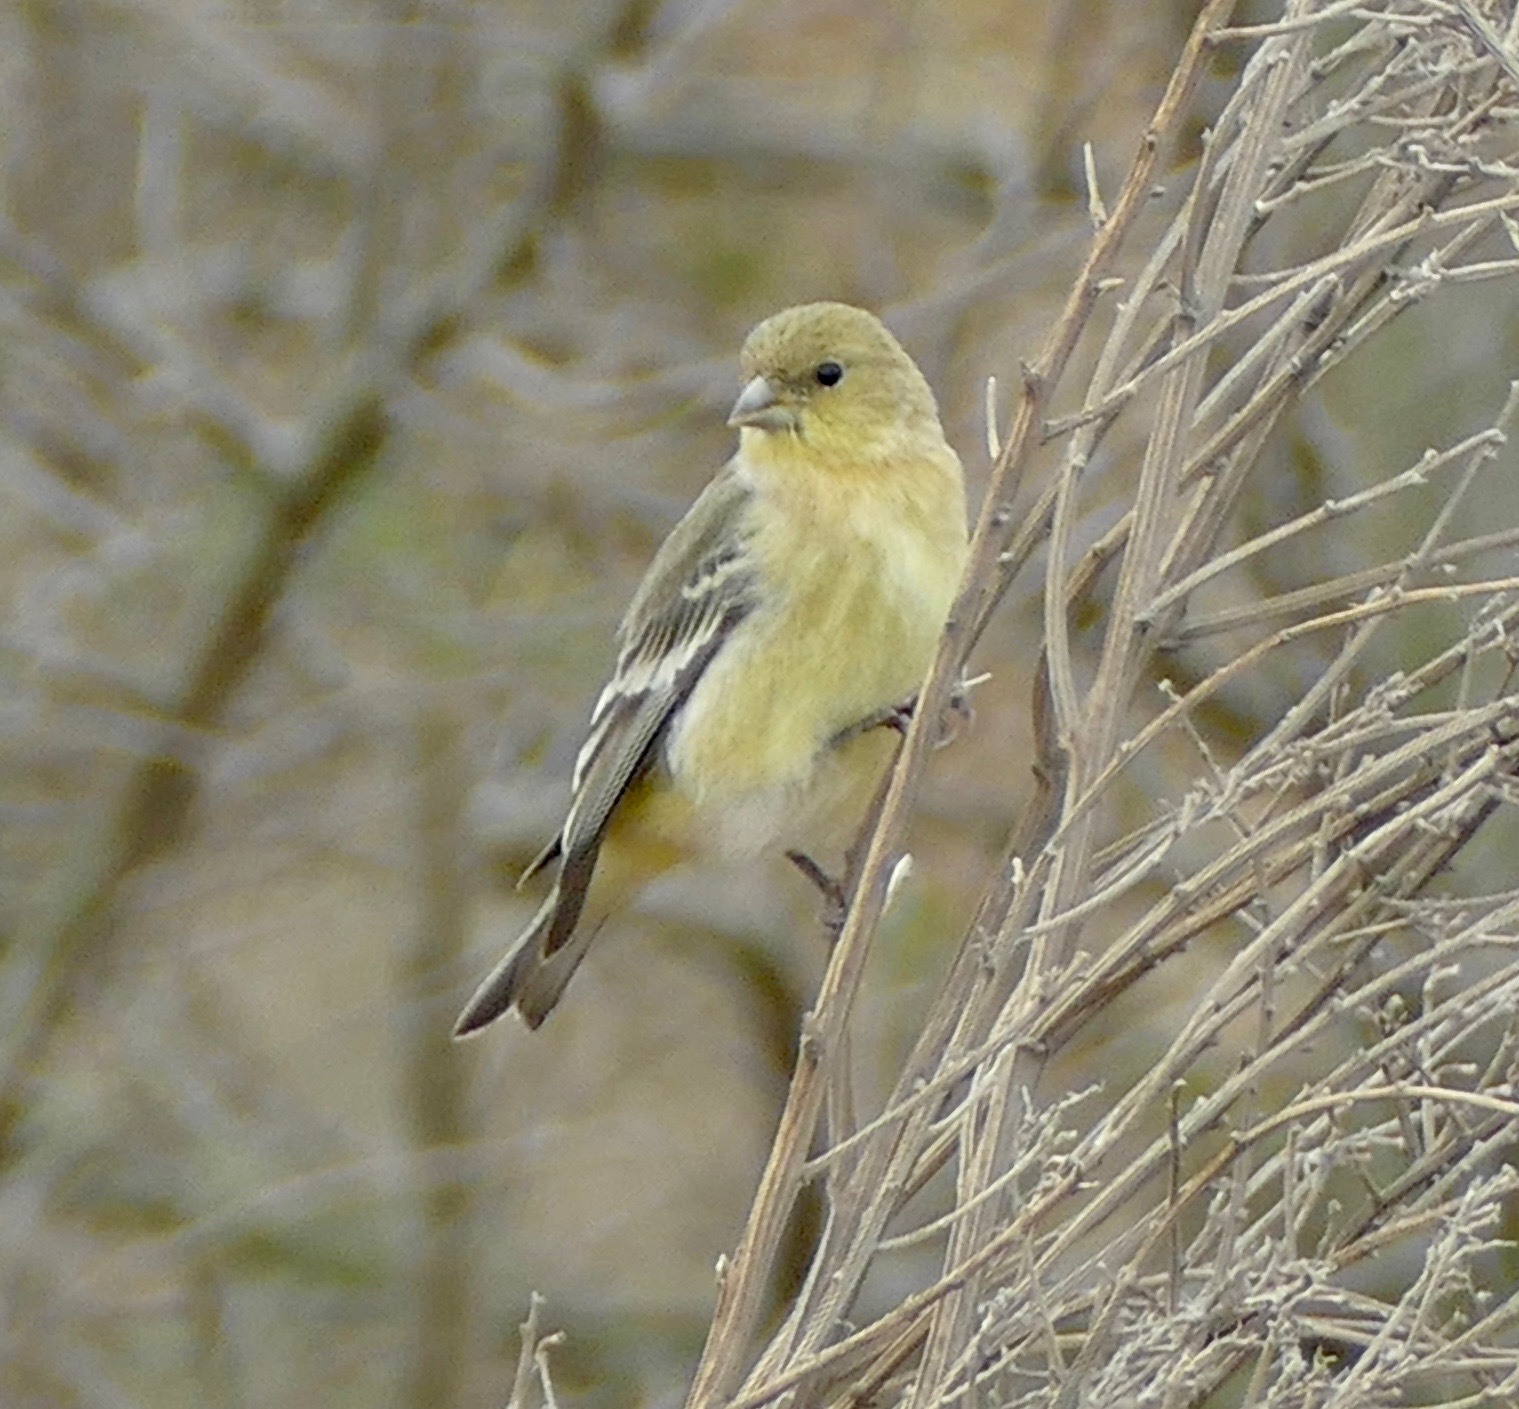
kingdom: Animalia
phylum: Chordata
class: Aves
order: Passeriformes
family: Fringillidae
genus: Spinus
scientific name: Spinus psaltria
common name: Lesser goldfinch
